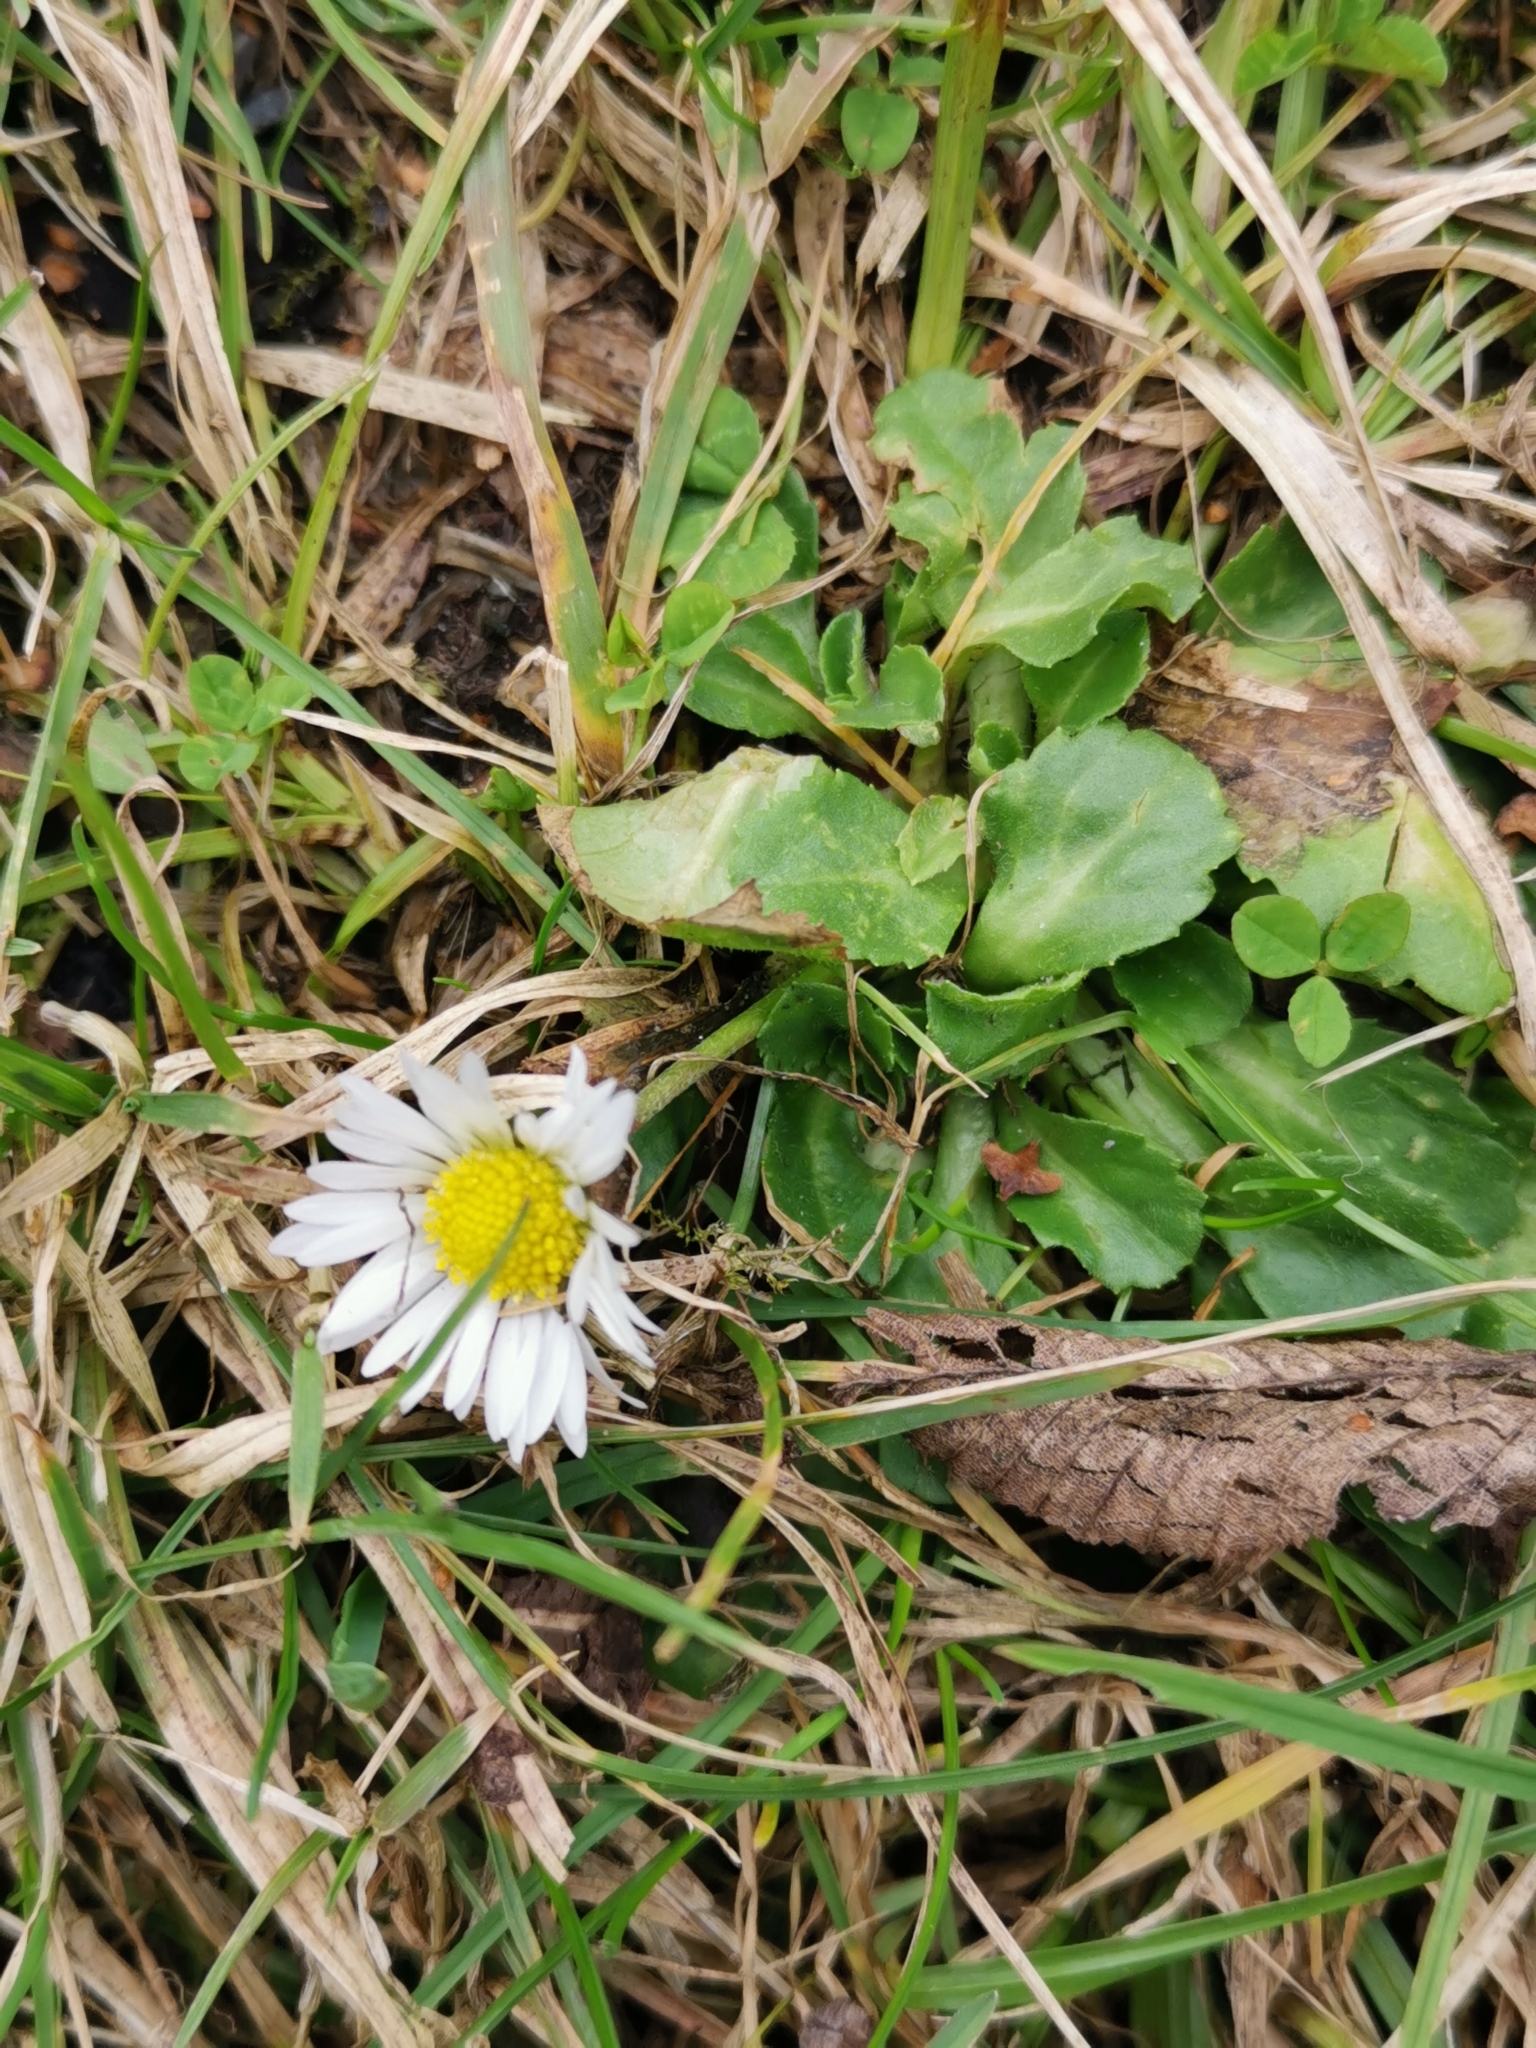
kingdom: Plantae
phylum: Tracheophyta
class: Magnoliopsida
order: Asterales
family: Asteraceae
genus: Bellis
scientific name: Bellis perennis
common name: Lawndaisy
